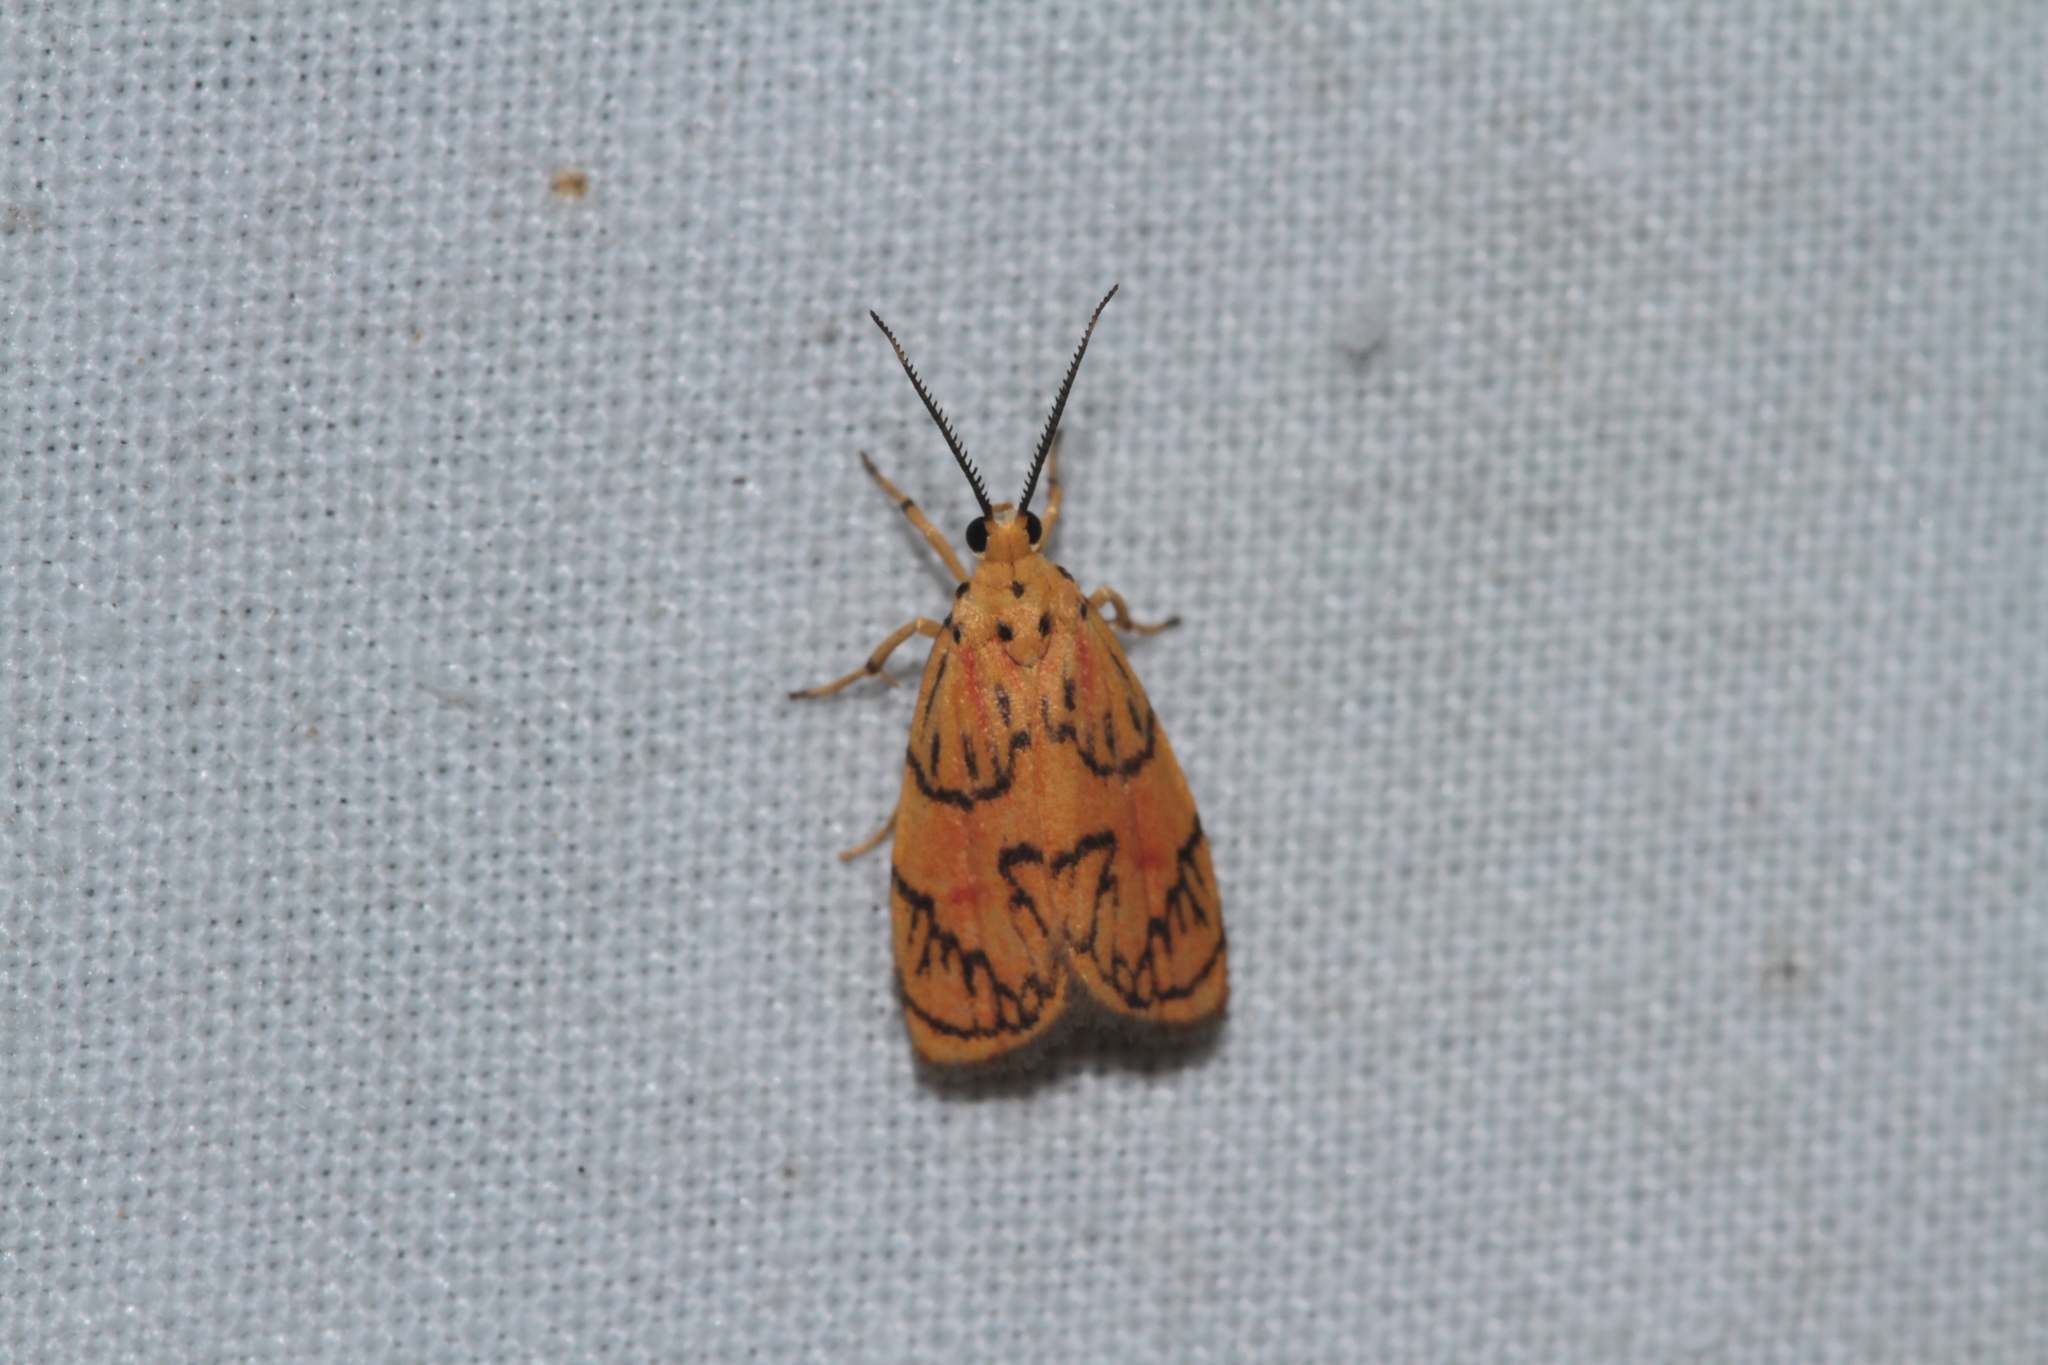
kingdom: Animalia
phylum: Arthropoda
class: Insecta
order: Lepidoptera
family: Erebidae
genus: Prepiella
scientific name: Prepiella radicans
